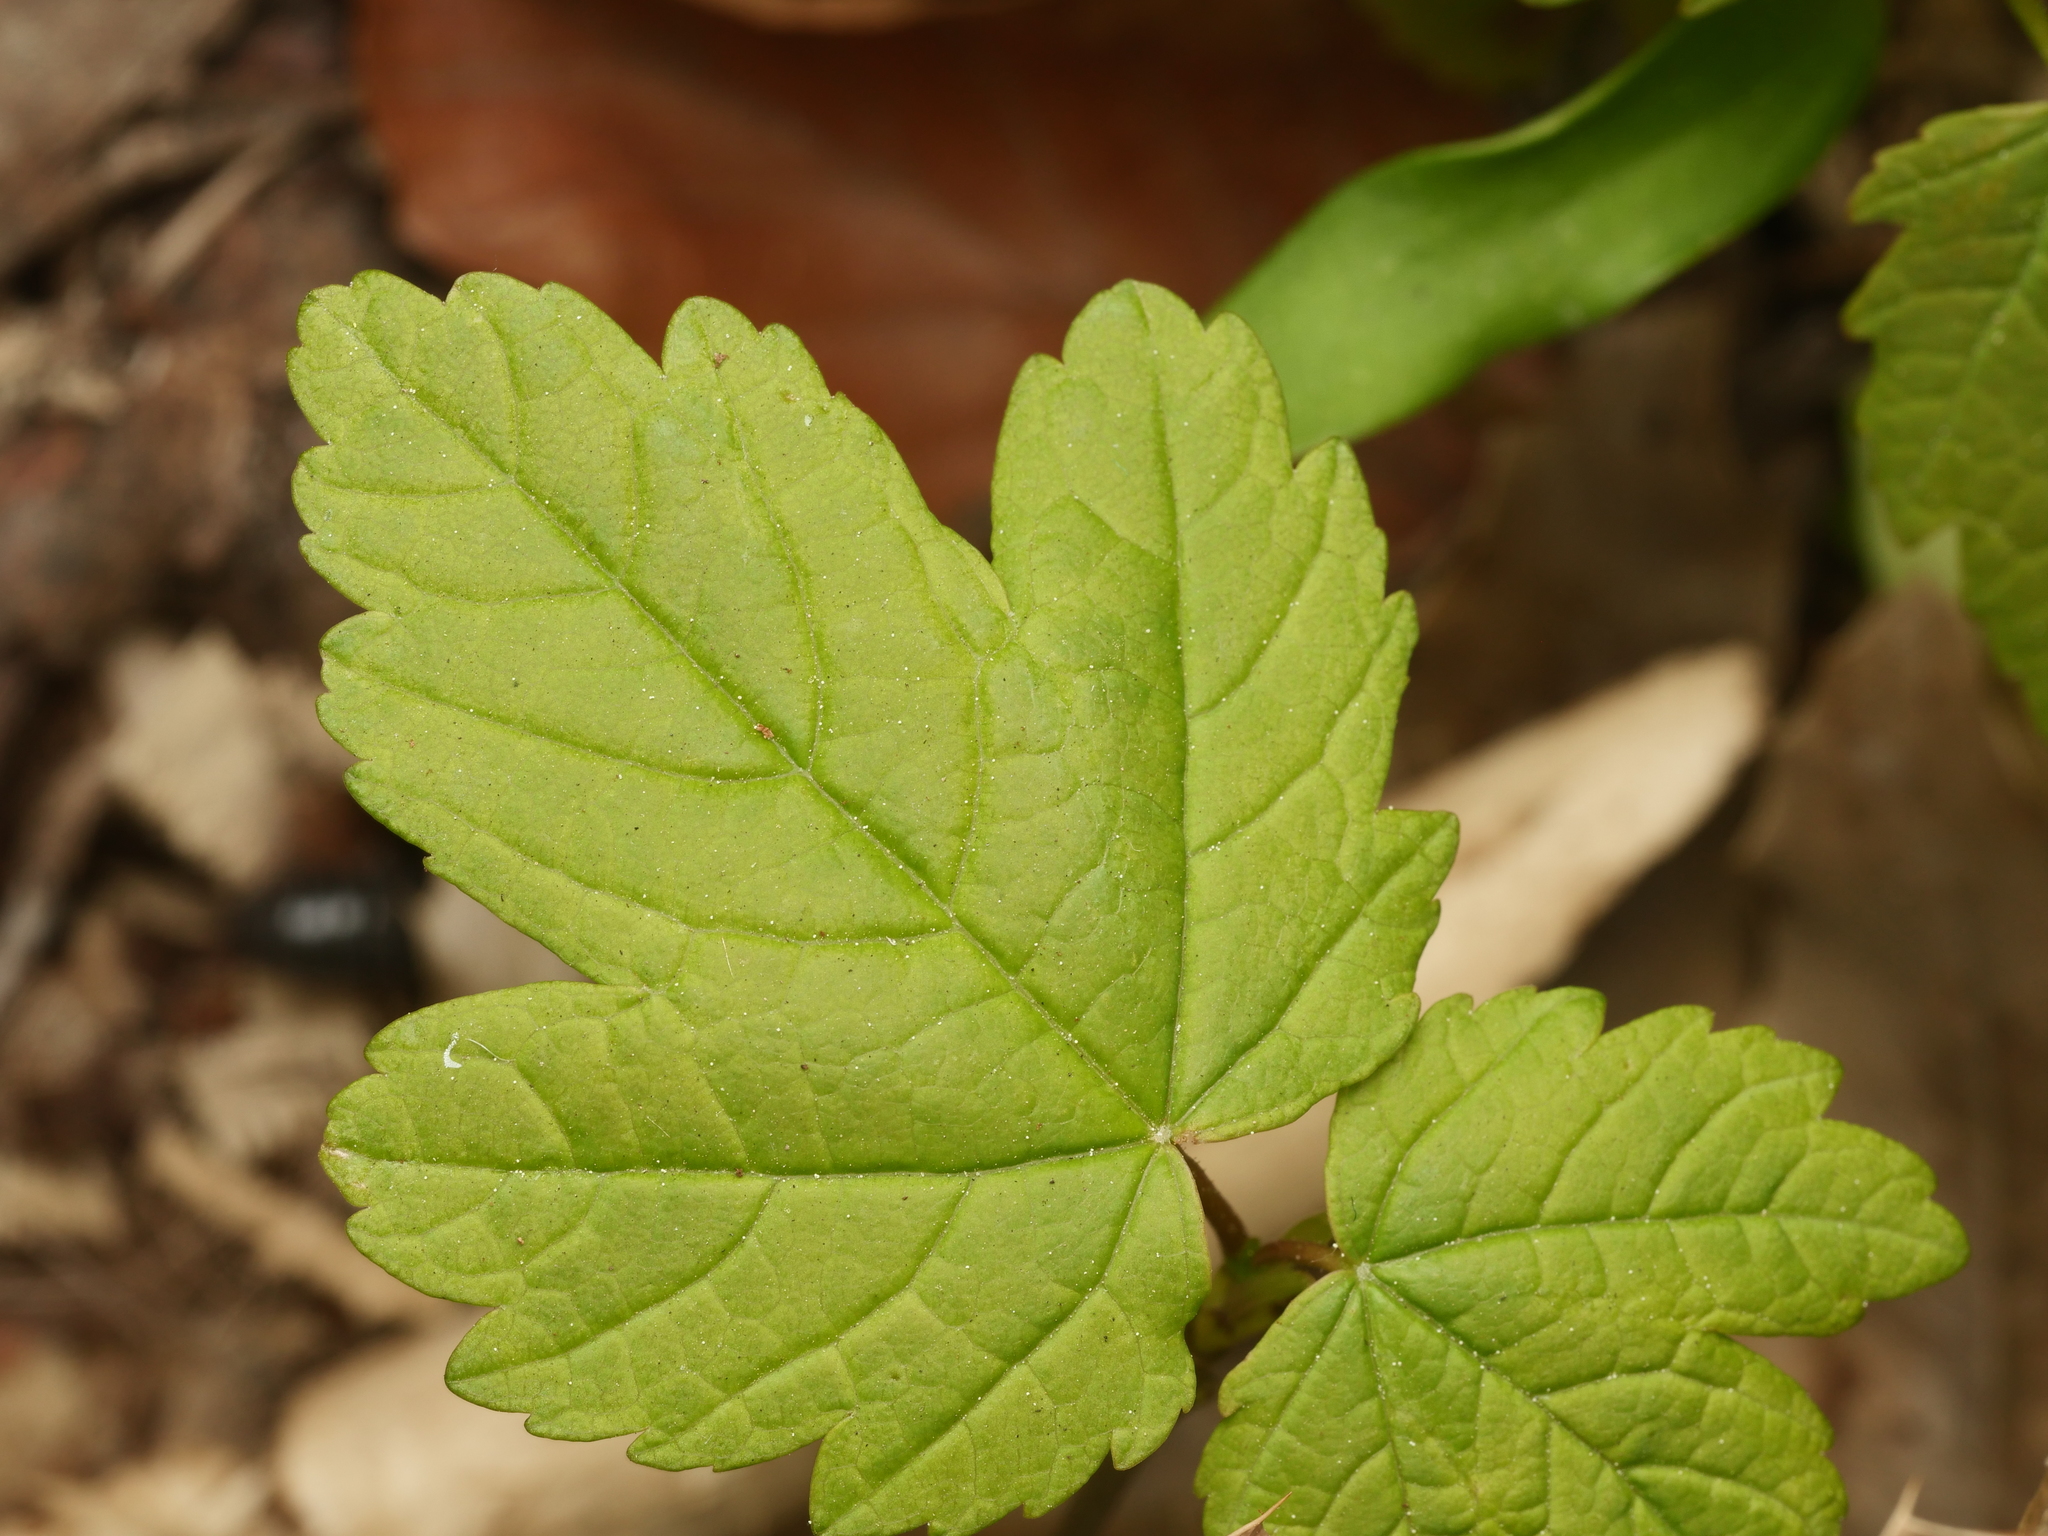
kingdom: Plantae
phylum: Tracheophyta
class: Magnoliopsida
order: Sapindales
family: Sapindaceae
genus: Acer
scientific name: Acer pseudoplatanus
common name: Sycamore
